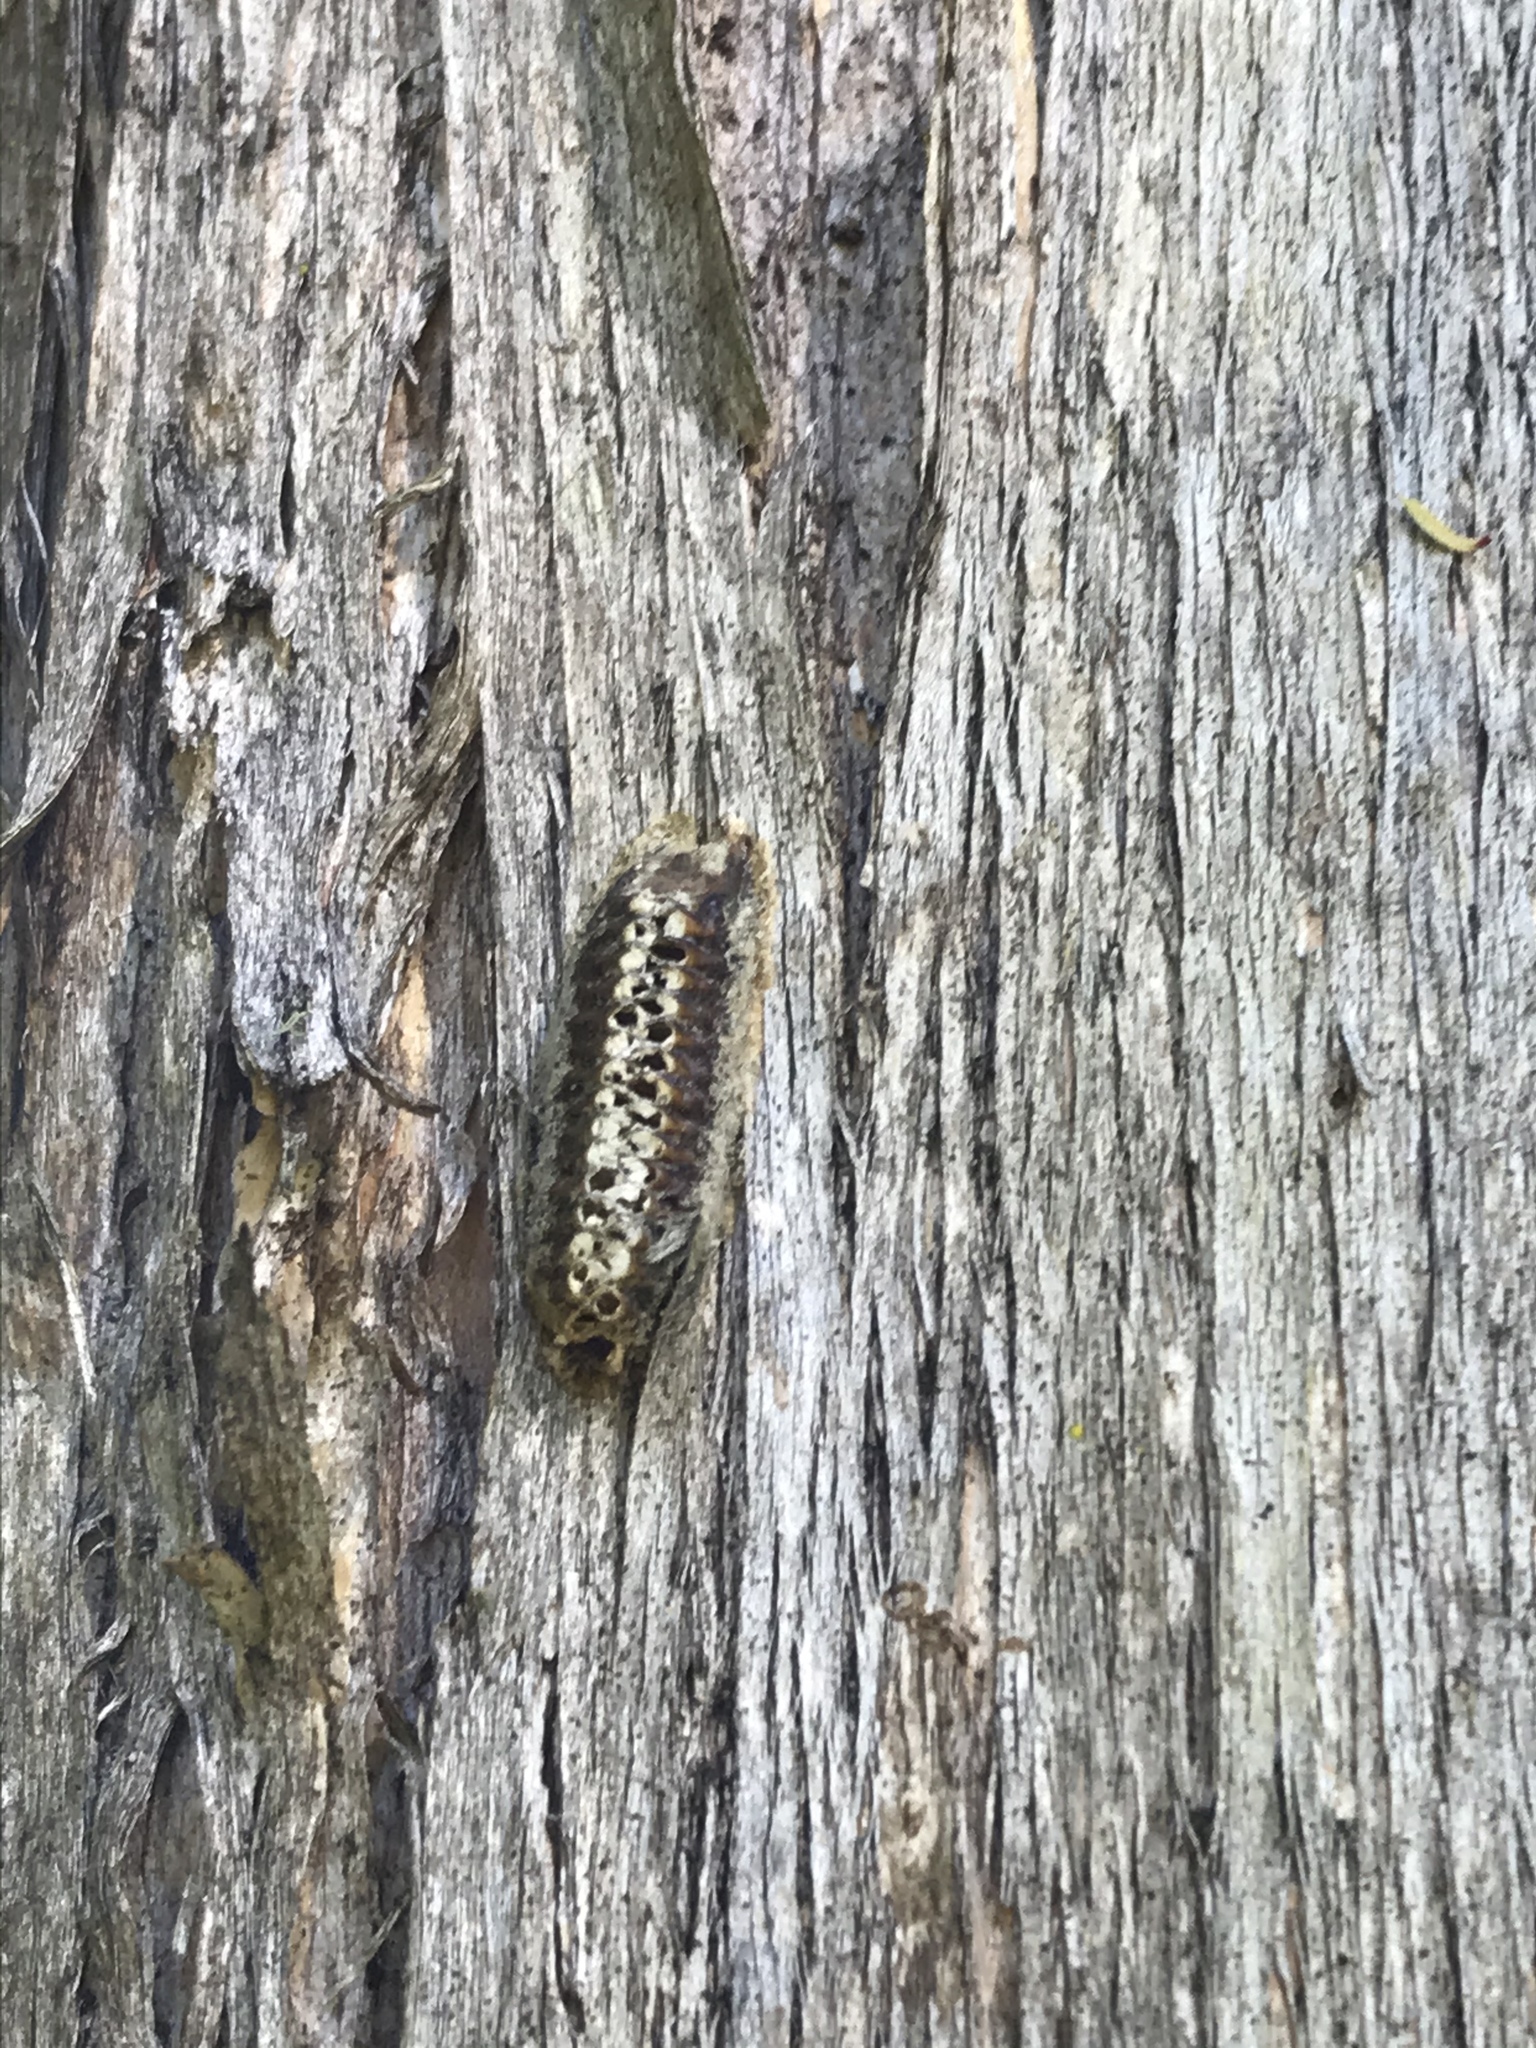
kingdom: Animalia
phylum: Arthropoda
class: Insecta
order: Mantodea
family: Mantidae
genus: Orthodera
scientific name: Orthodera novaezealandiae
